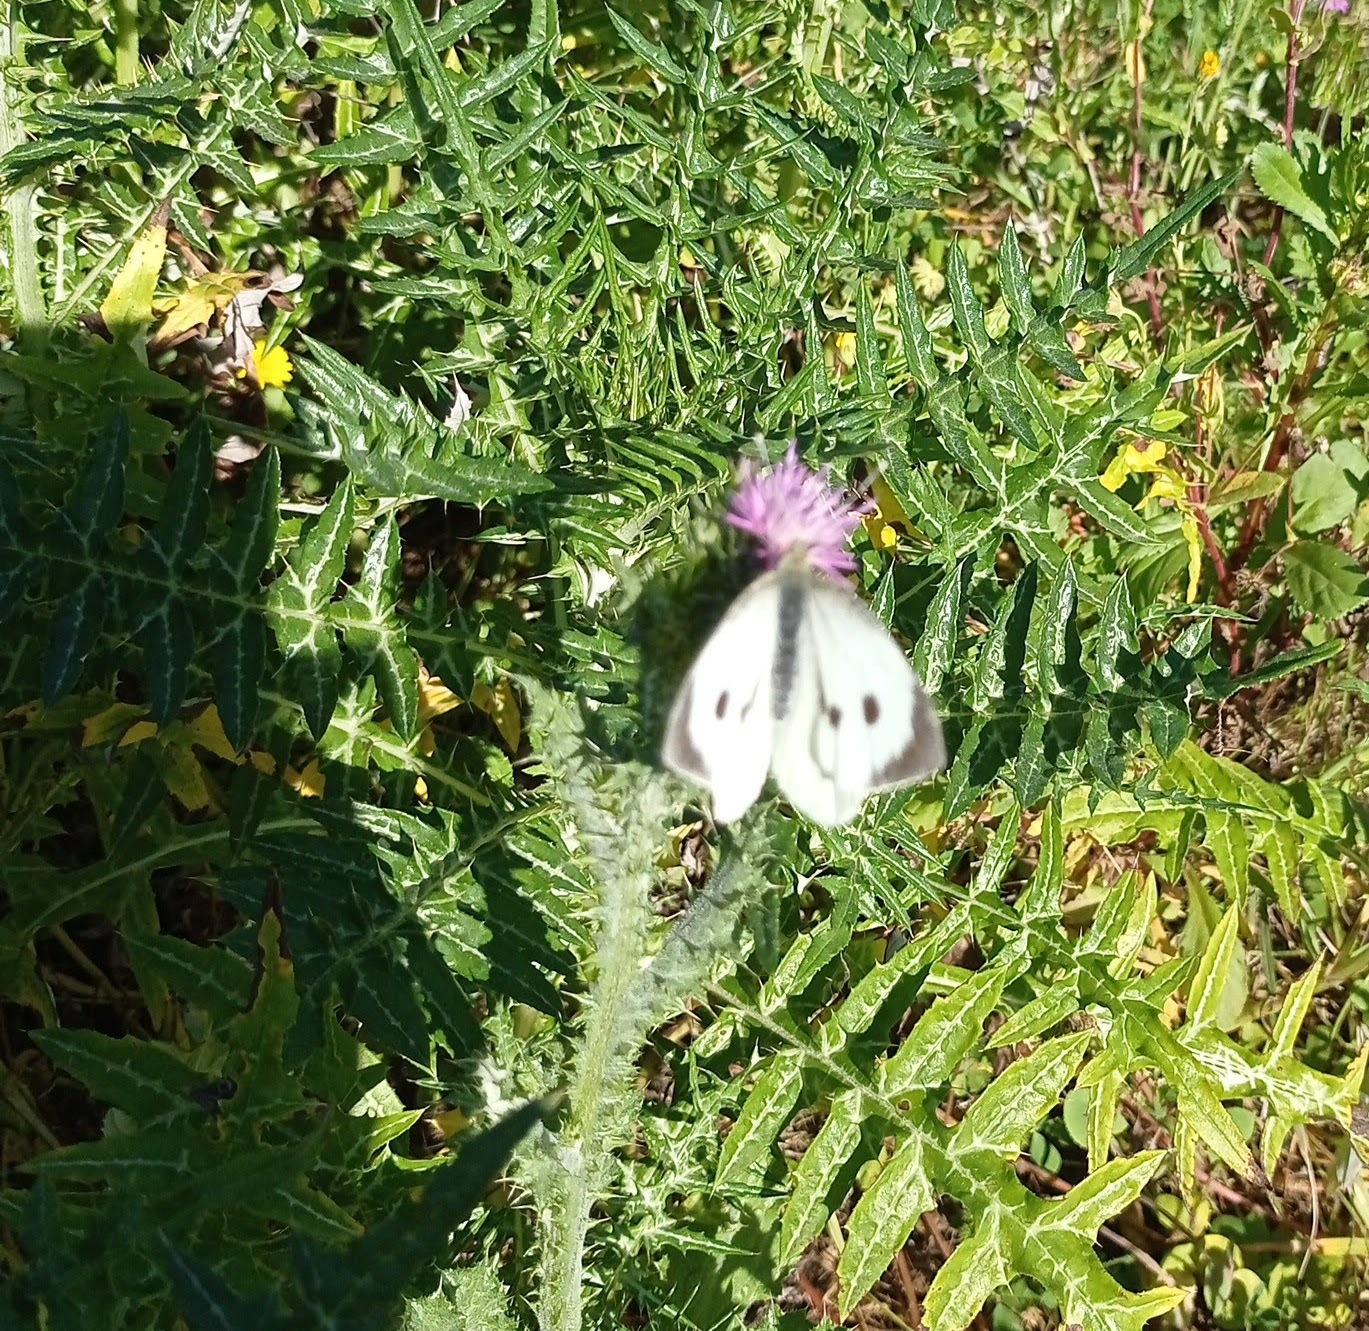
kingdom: Animalia
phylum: Arthropoda
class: Insecta
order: Lepidoptera
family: Pieridae
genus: Pieris
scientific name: Pieris brassicae
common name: Large white
